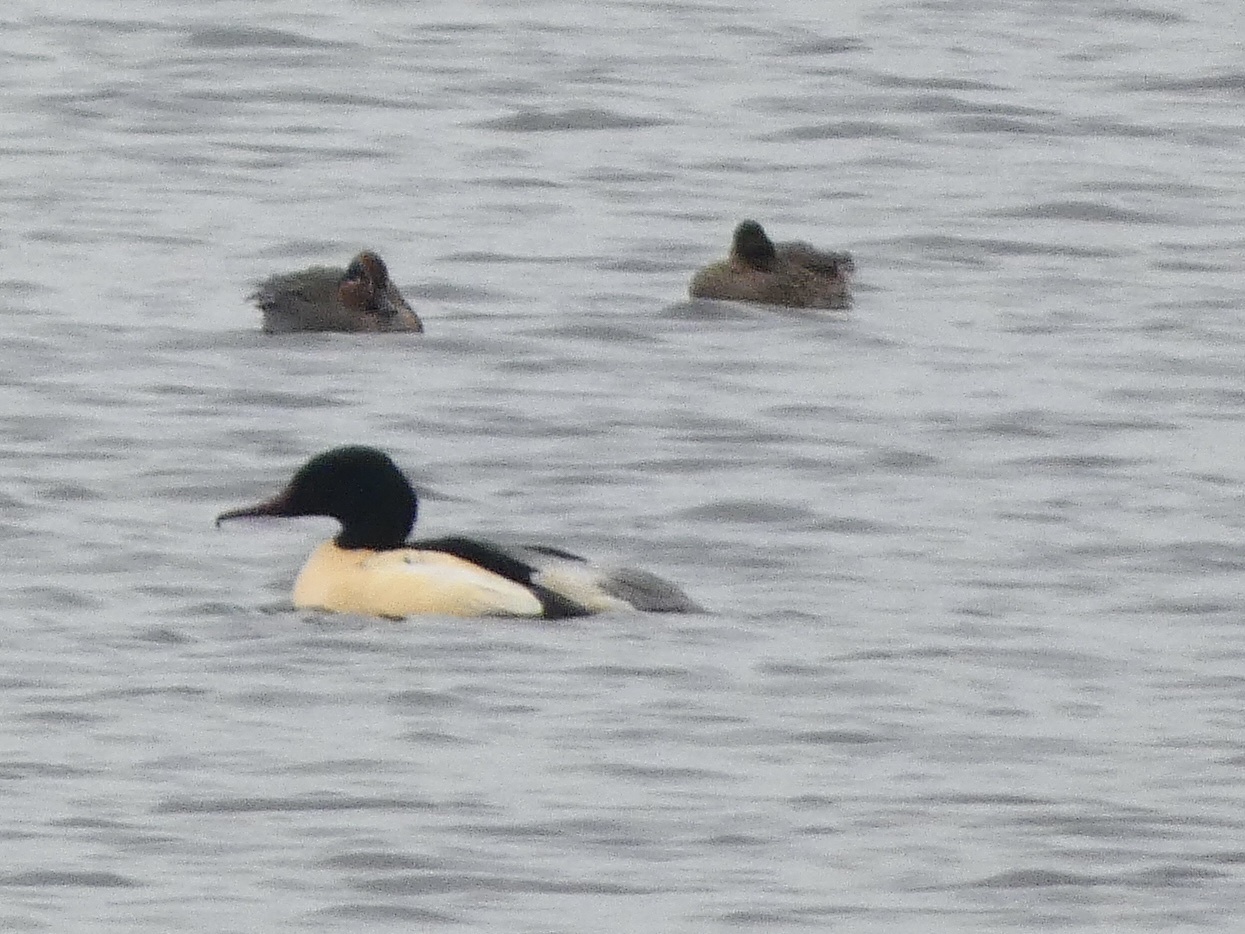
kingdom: Animalia
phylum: Chordata
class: Aves
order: Anseriformes
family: Anatidae
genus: Mergus
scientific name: Mergus merganser
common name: Common merganser
